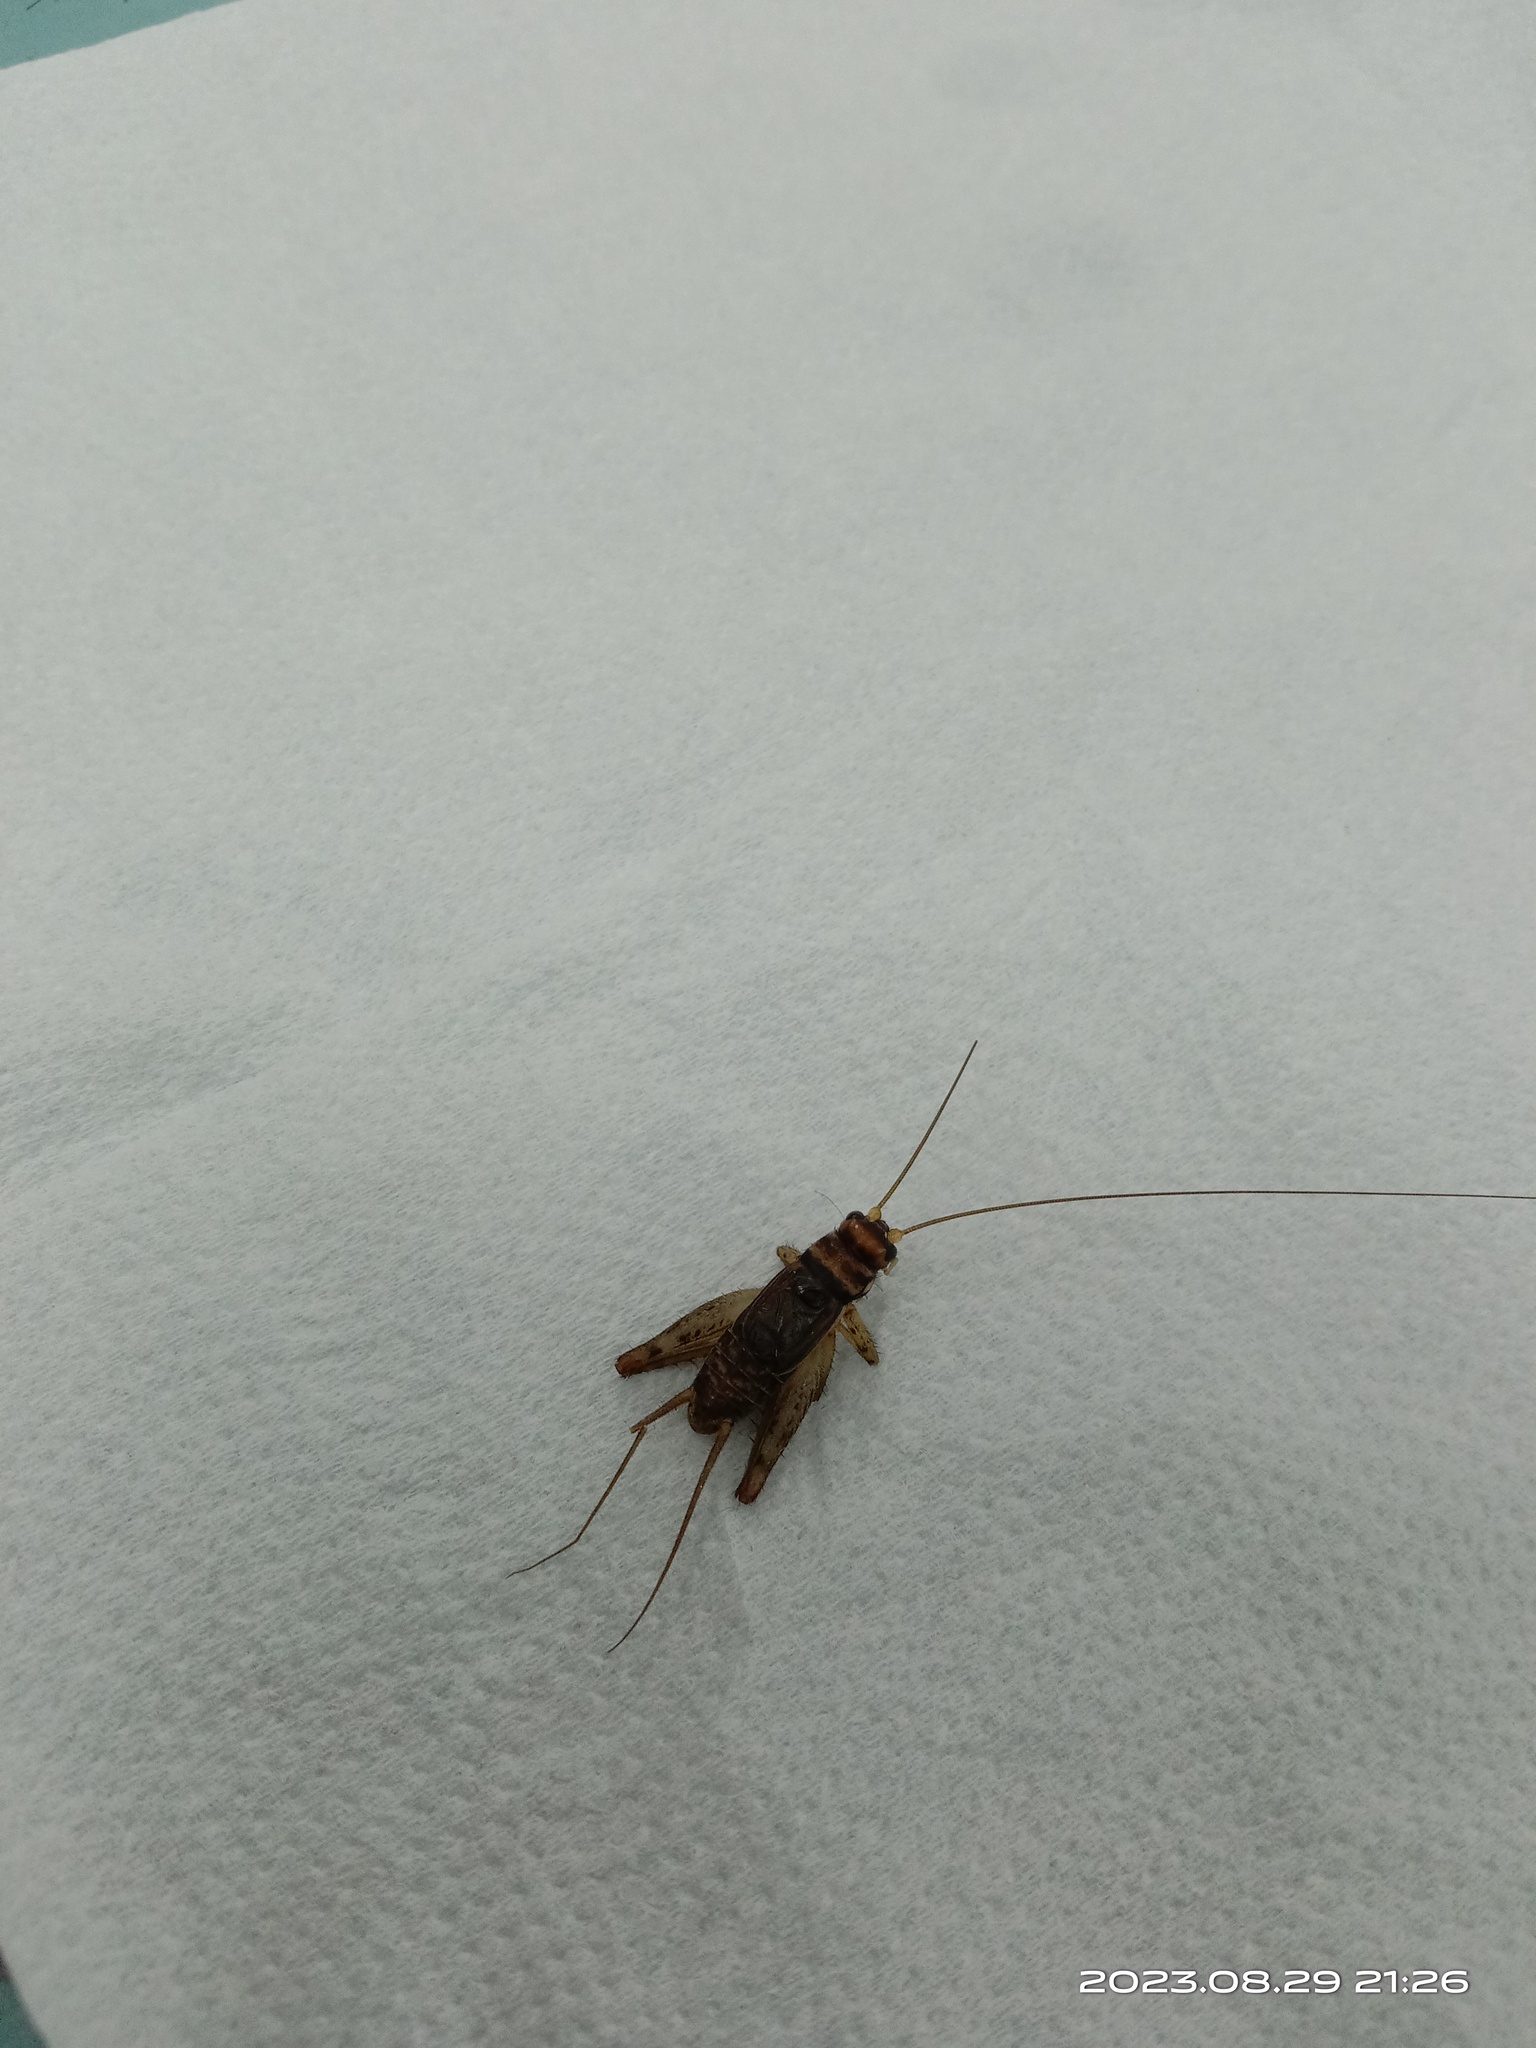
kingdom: Animalia
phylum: Arthropoda
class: Insecta
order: Orthoptera
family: Gryllidae
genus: Gryllodes
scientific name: Gryllodes sigillatus
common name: Tropical house cricket
